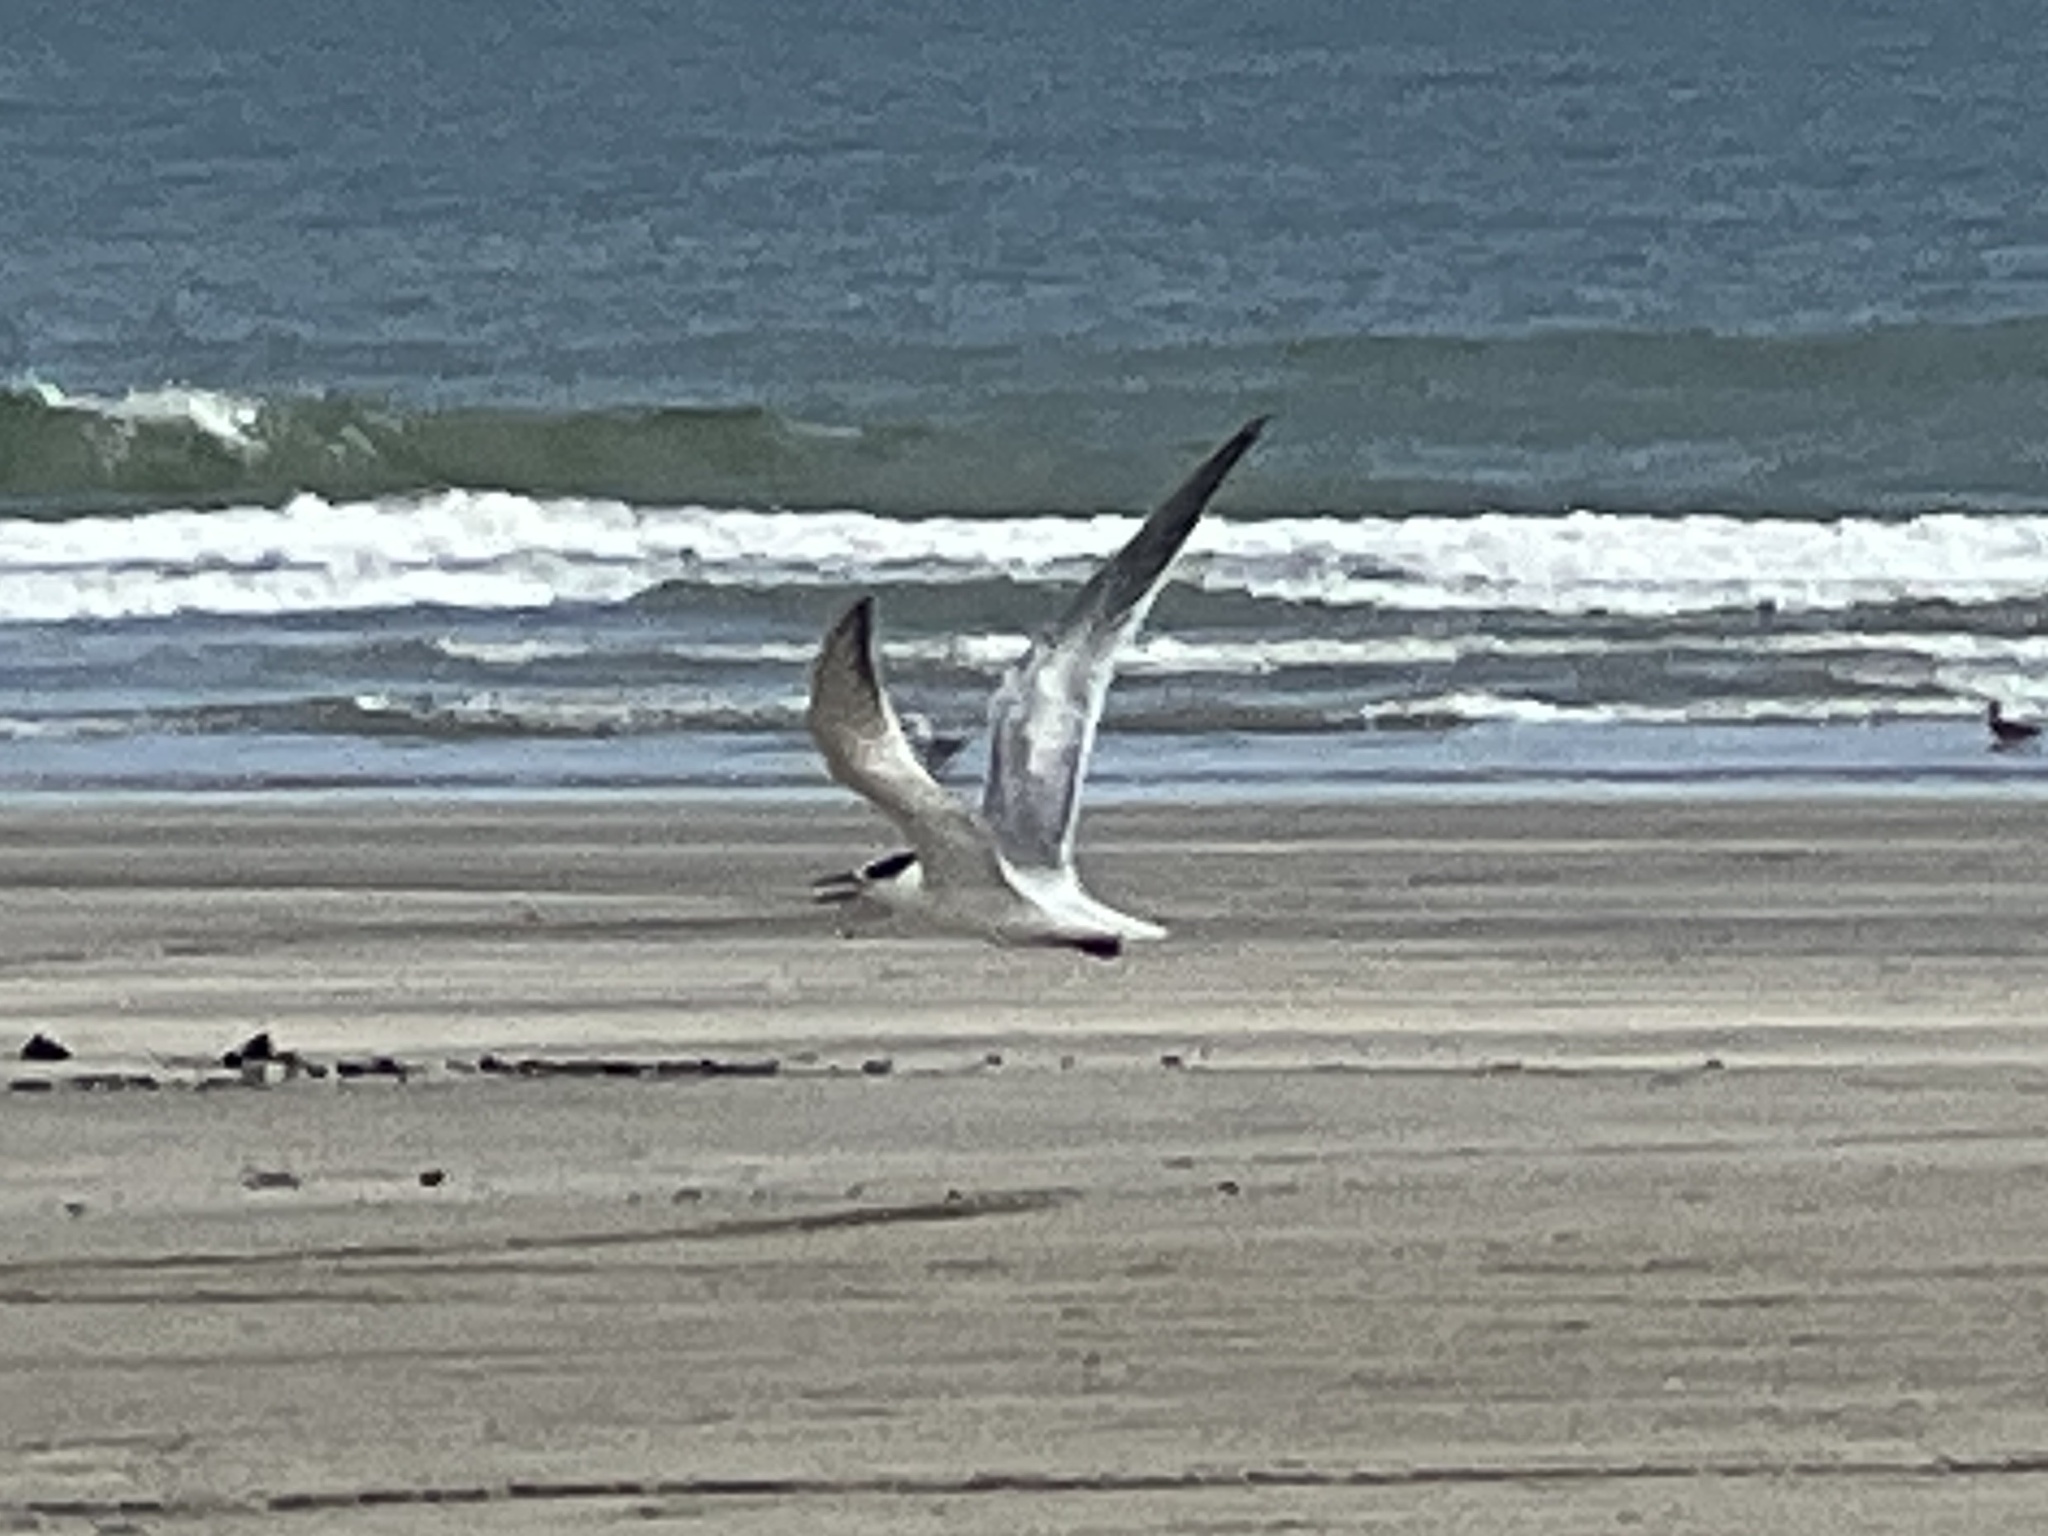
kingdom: Animalia
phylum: Chordata
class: Aves
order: Charadriiformes
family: Laridae
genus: Sterna
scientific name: Sterna forsteri
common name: Forster's tern
